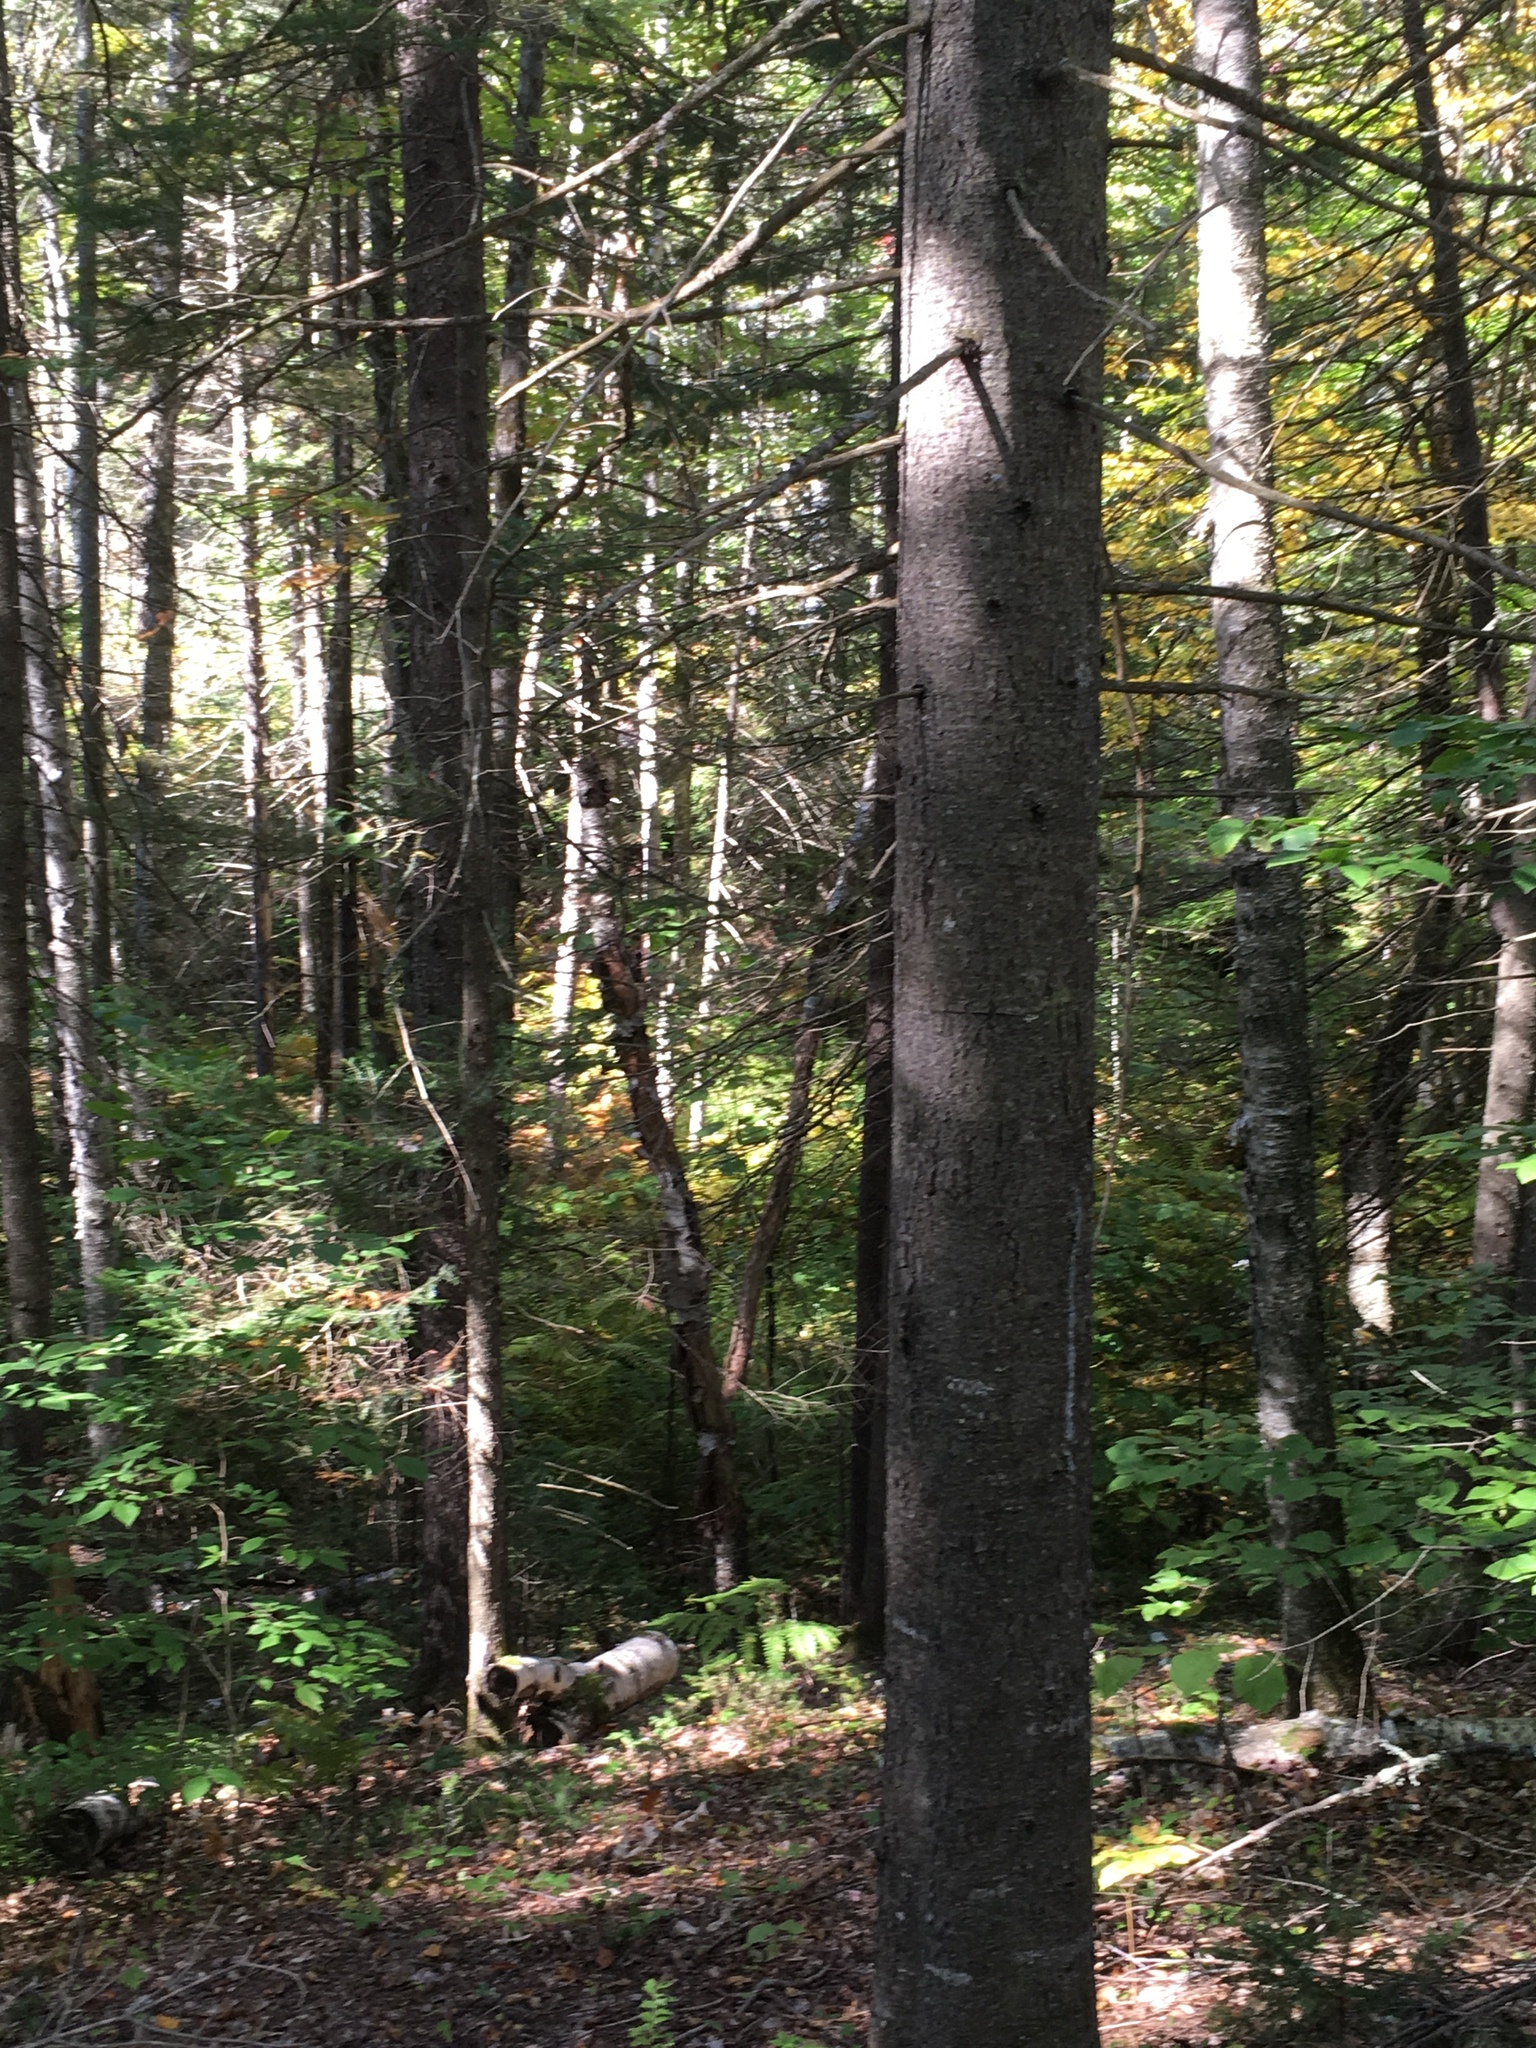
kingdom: Plantae
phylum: Tracheophyta
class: Pinopsida
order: Pinales
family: Pinaceae
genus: Abies
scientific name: Abies balsamea
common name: Balsam fir
